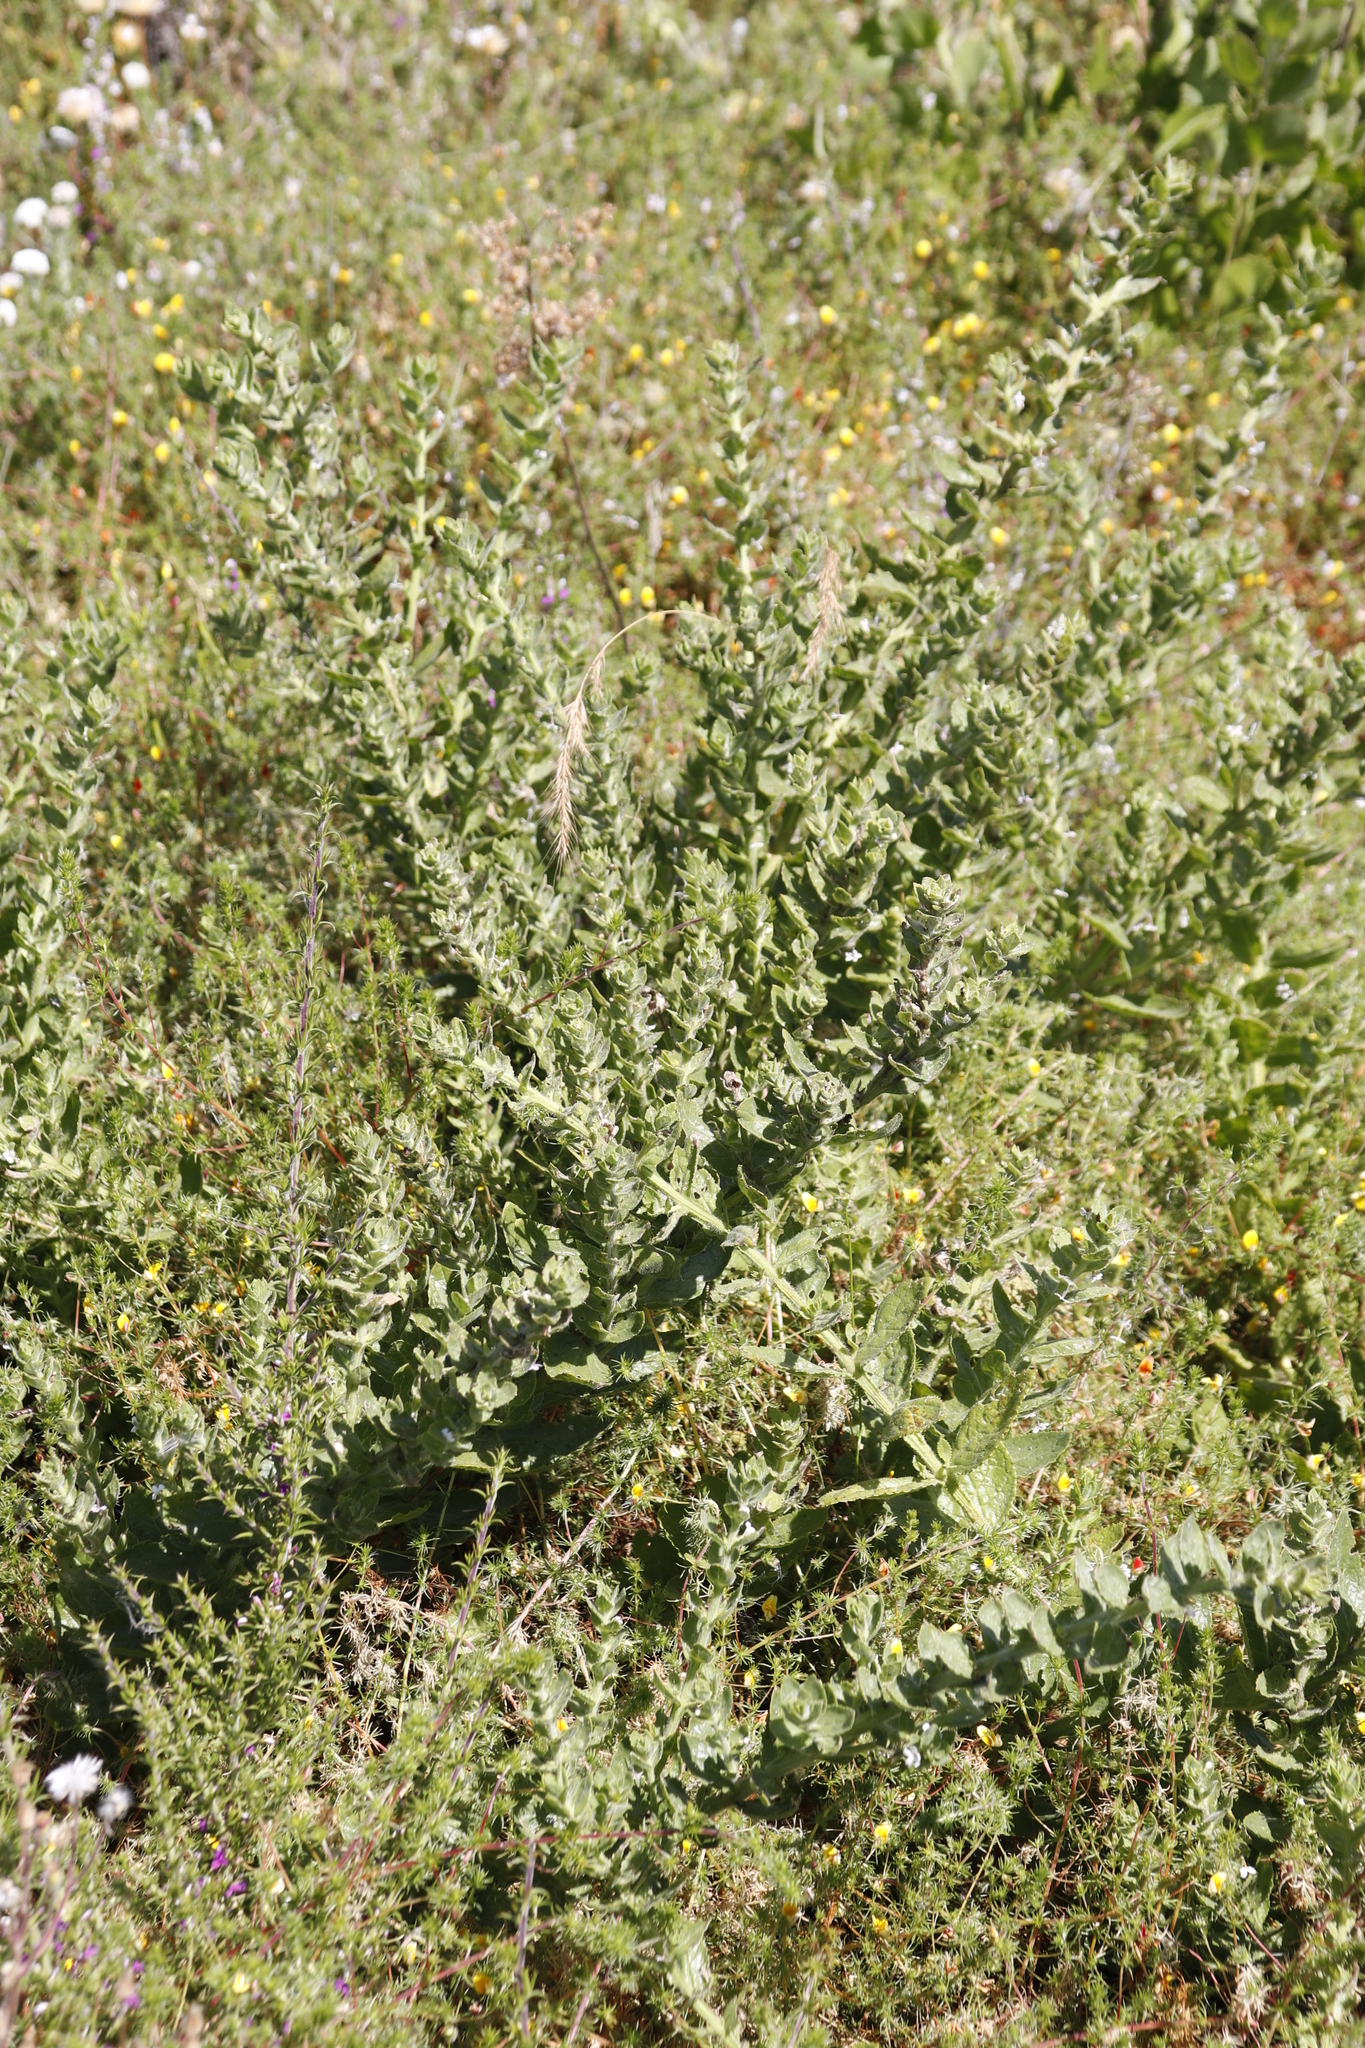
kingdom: Plantae
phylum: Tracheophyta
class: Magnoliopsida
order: Lamiales
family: Scrophulariaceae
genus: Oftia
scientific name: Oftia africana
